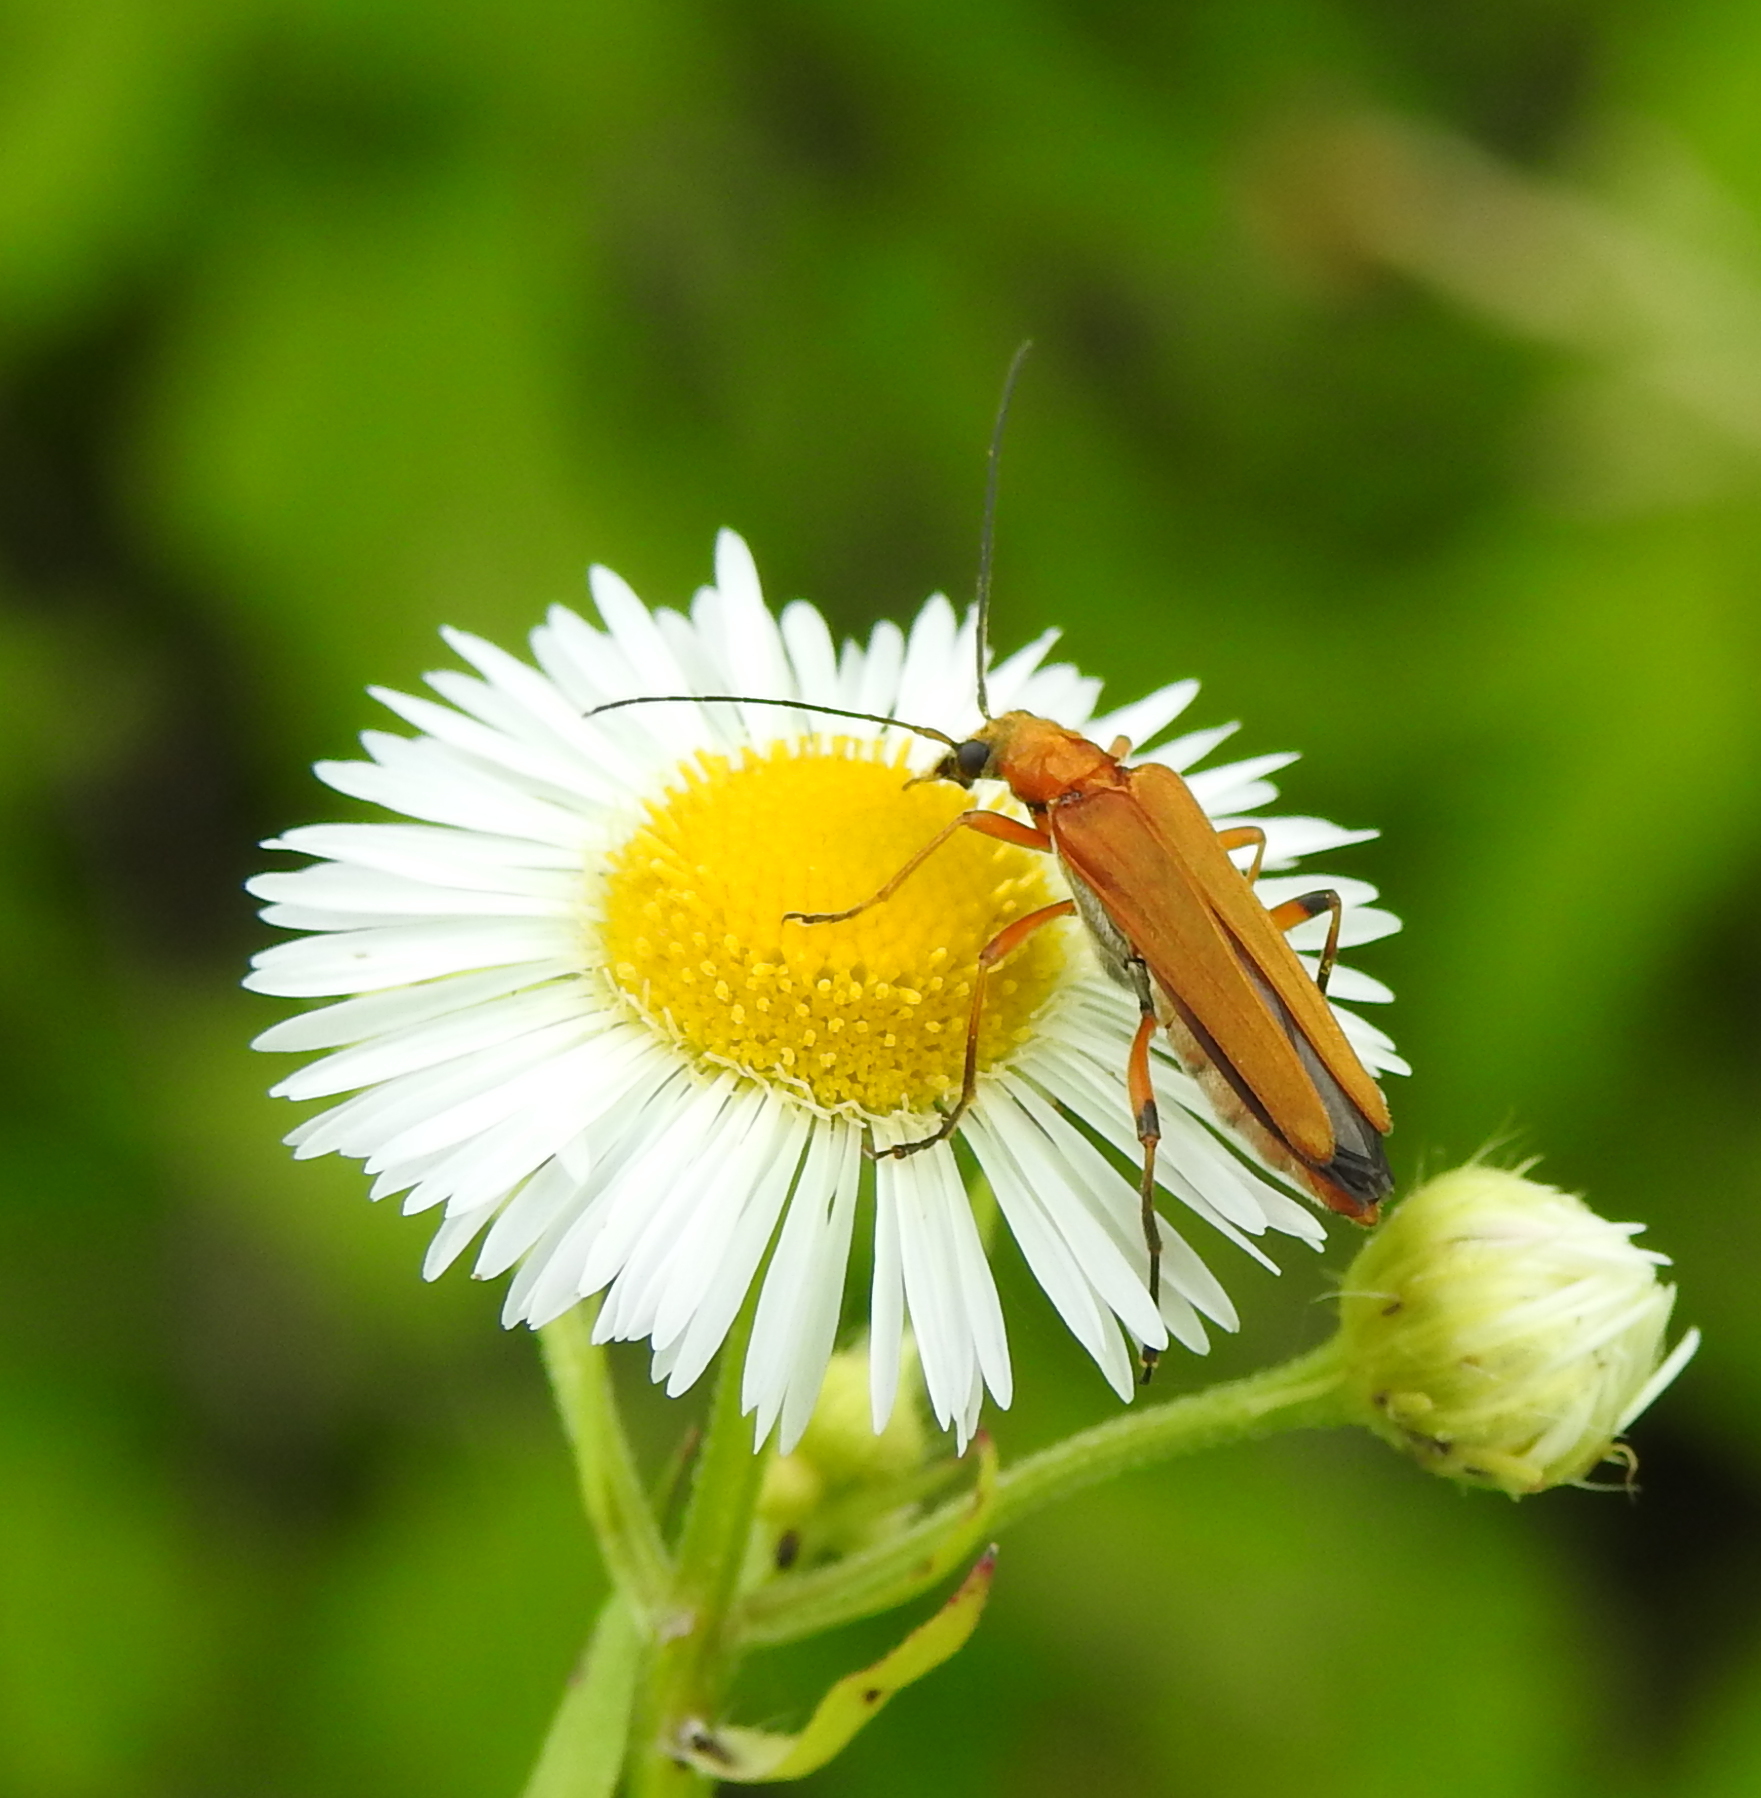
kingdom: Animalia
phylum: Arthropoda
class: Insecta
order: Coleoptera
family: Oedemeridae
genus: Oedemera
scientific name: Oedemera podagrariae
